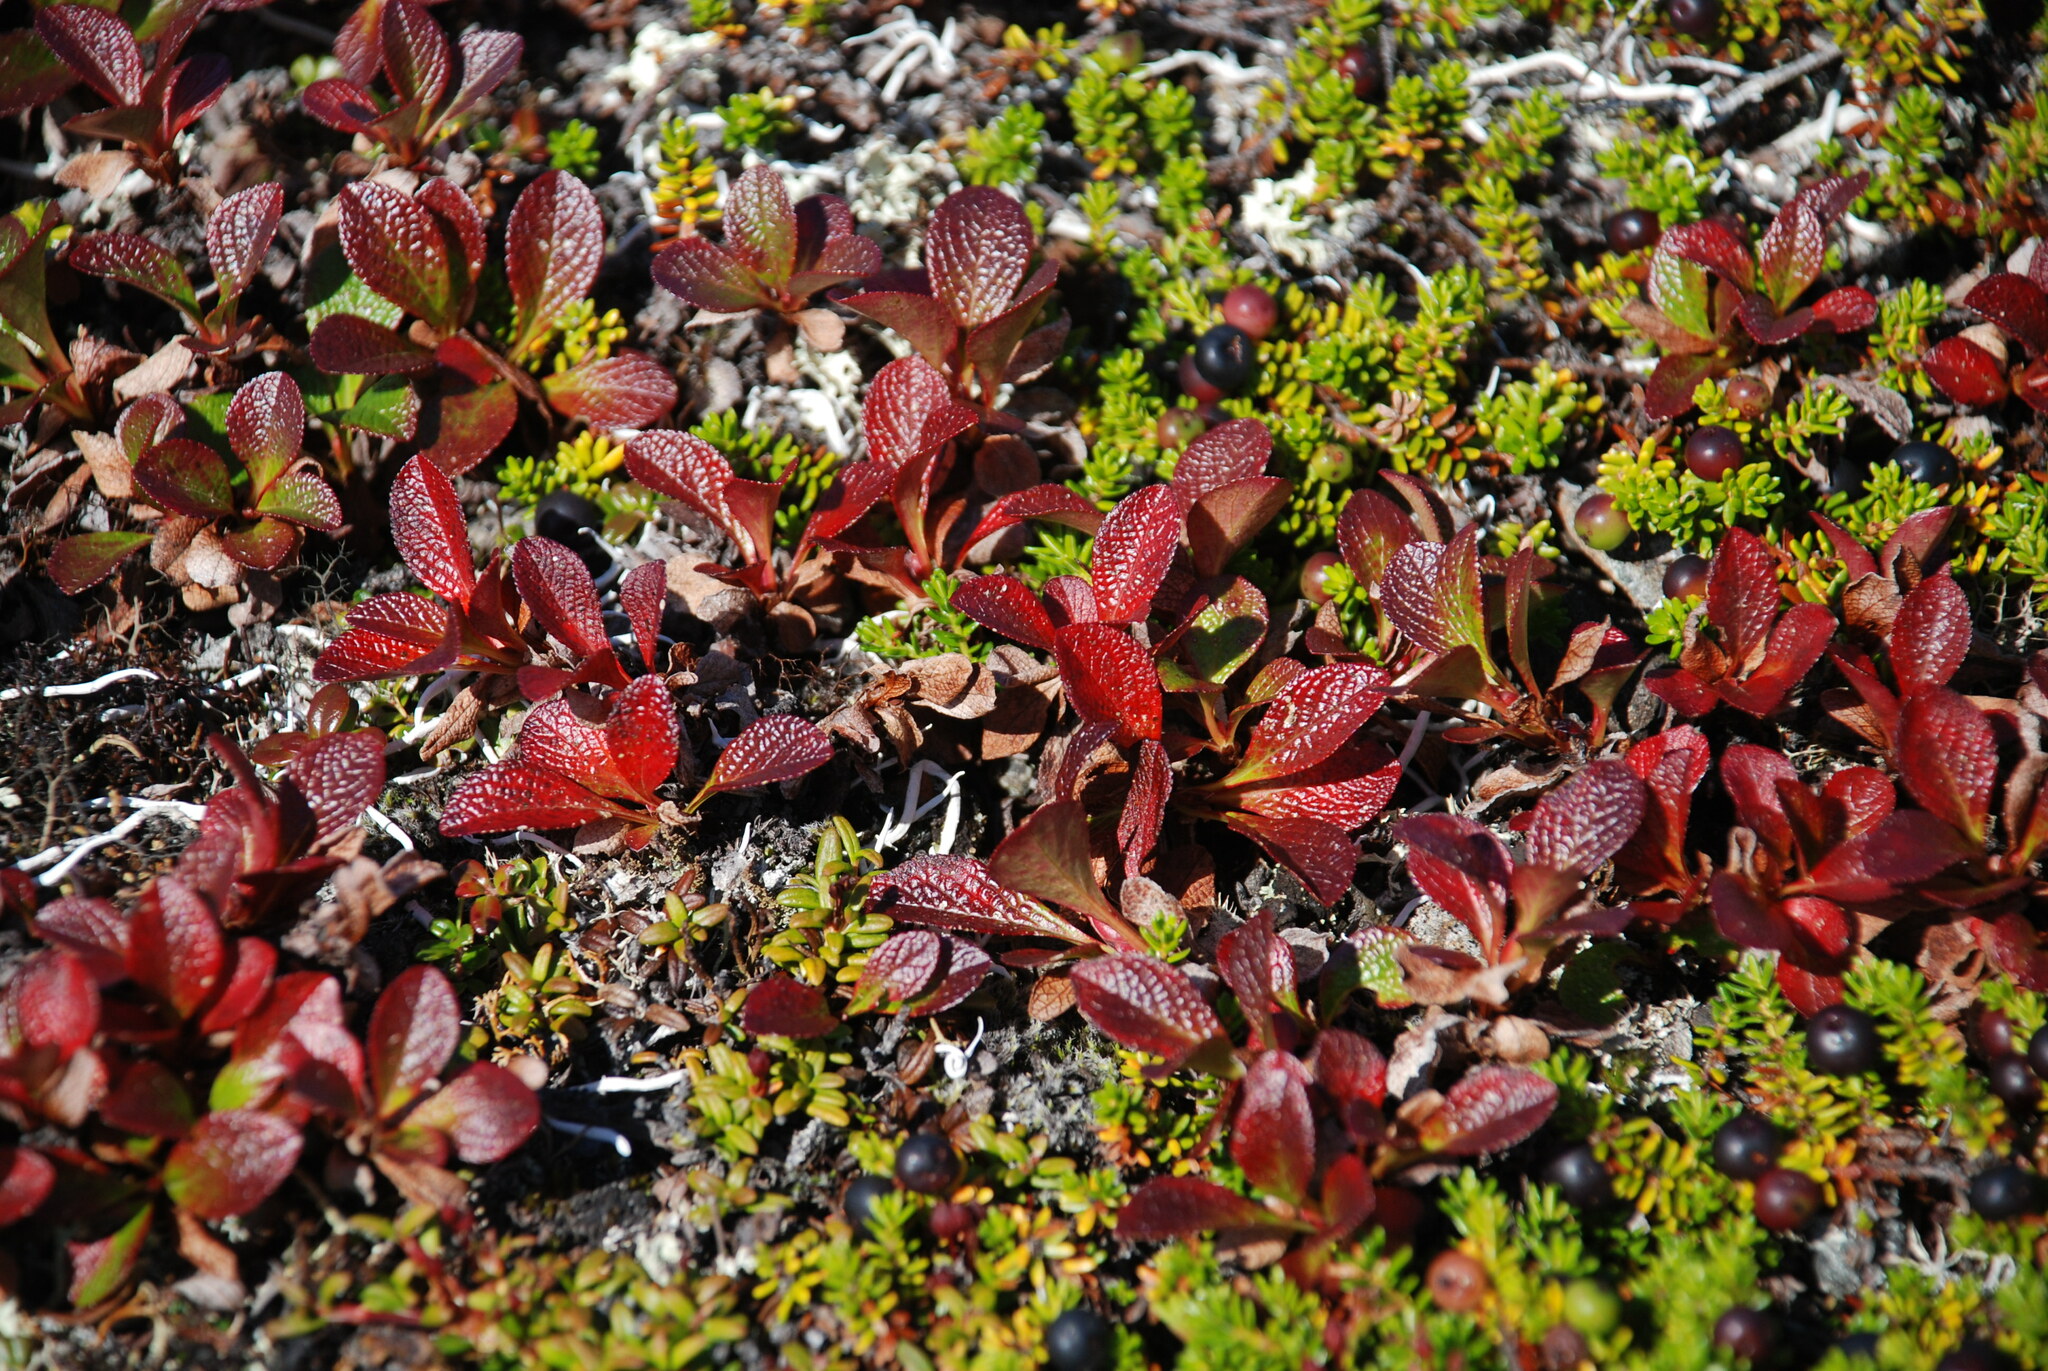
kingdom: Plantae
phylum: Tracheophyta
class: Magnoliopsida
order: Ericales
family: Ericaceae
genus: Arctostaphylos
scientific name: Arctostaphylos alpinus
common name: Alpine bearberry
